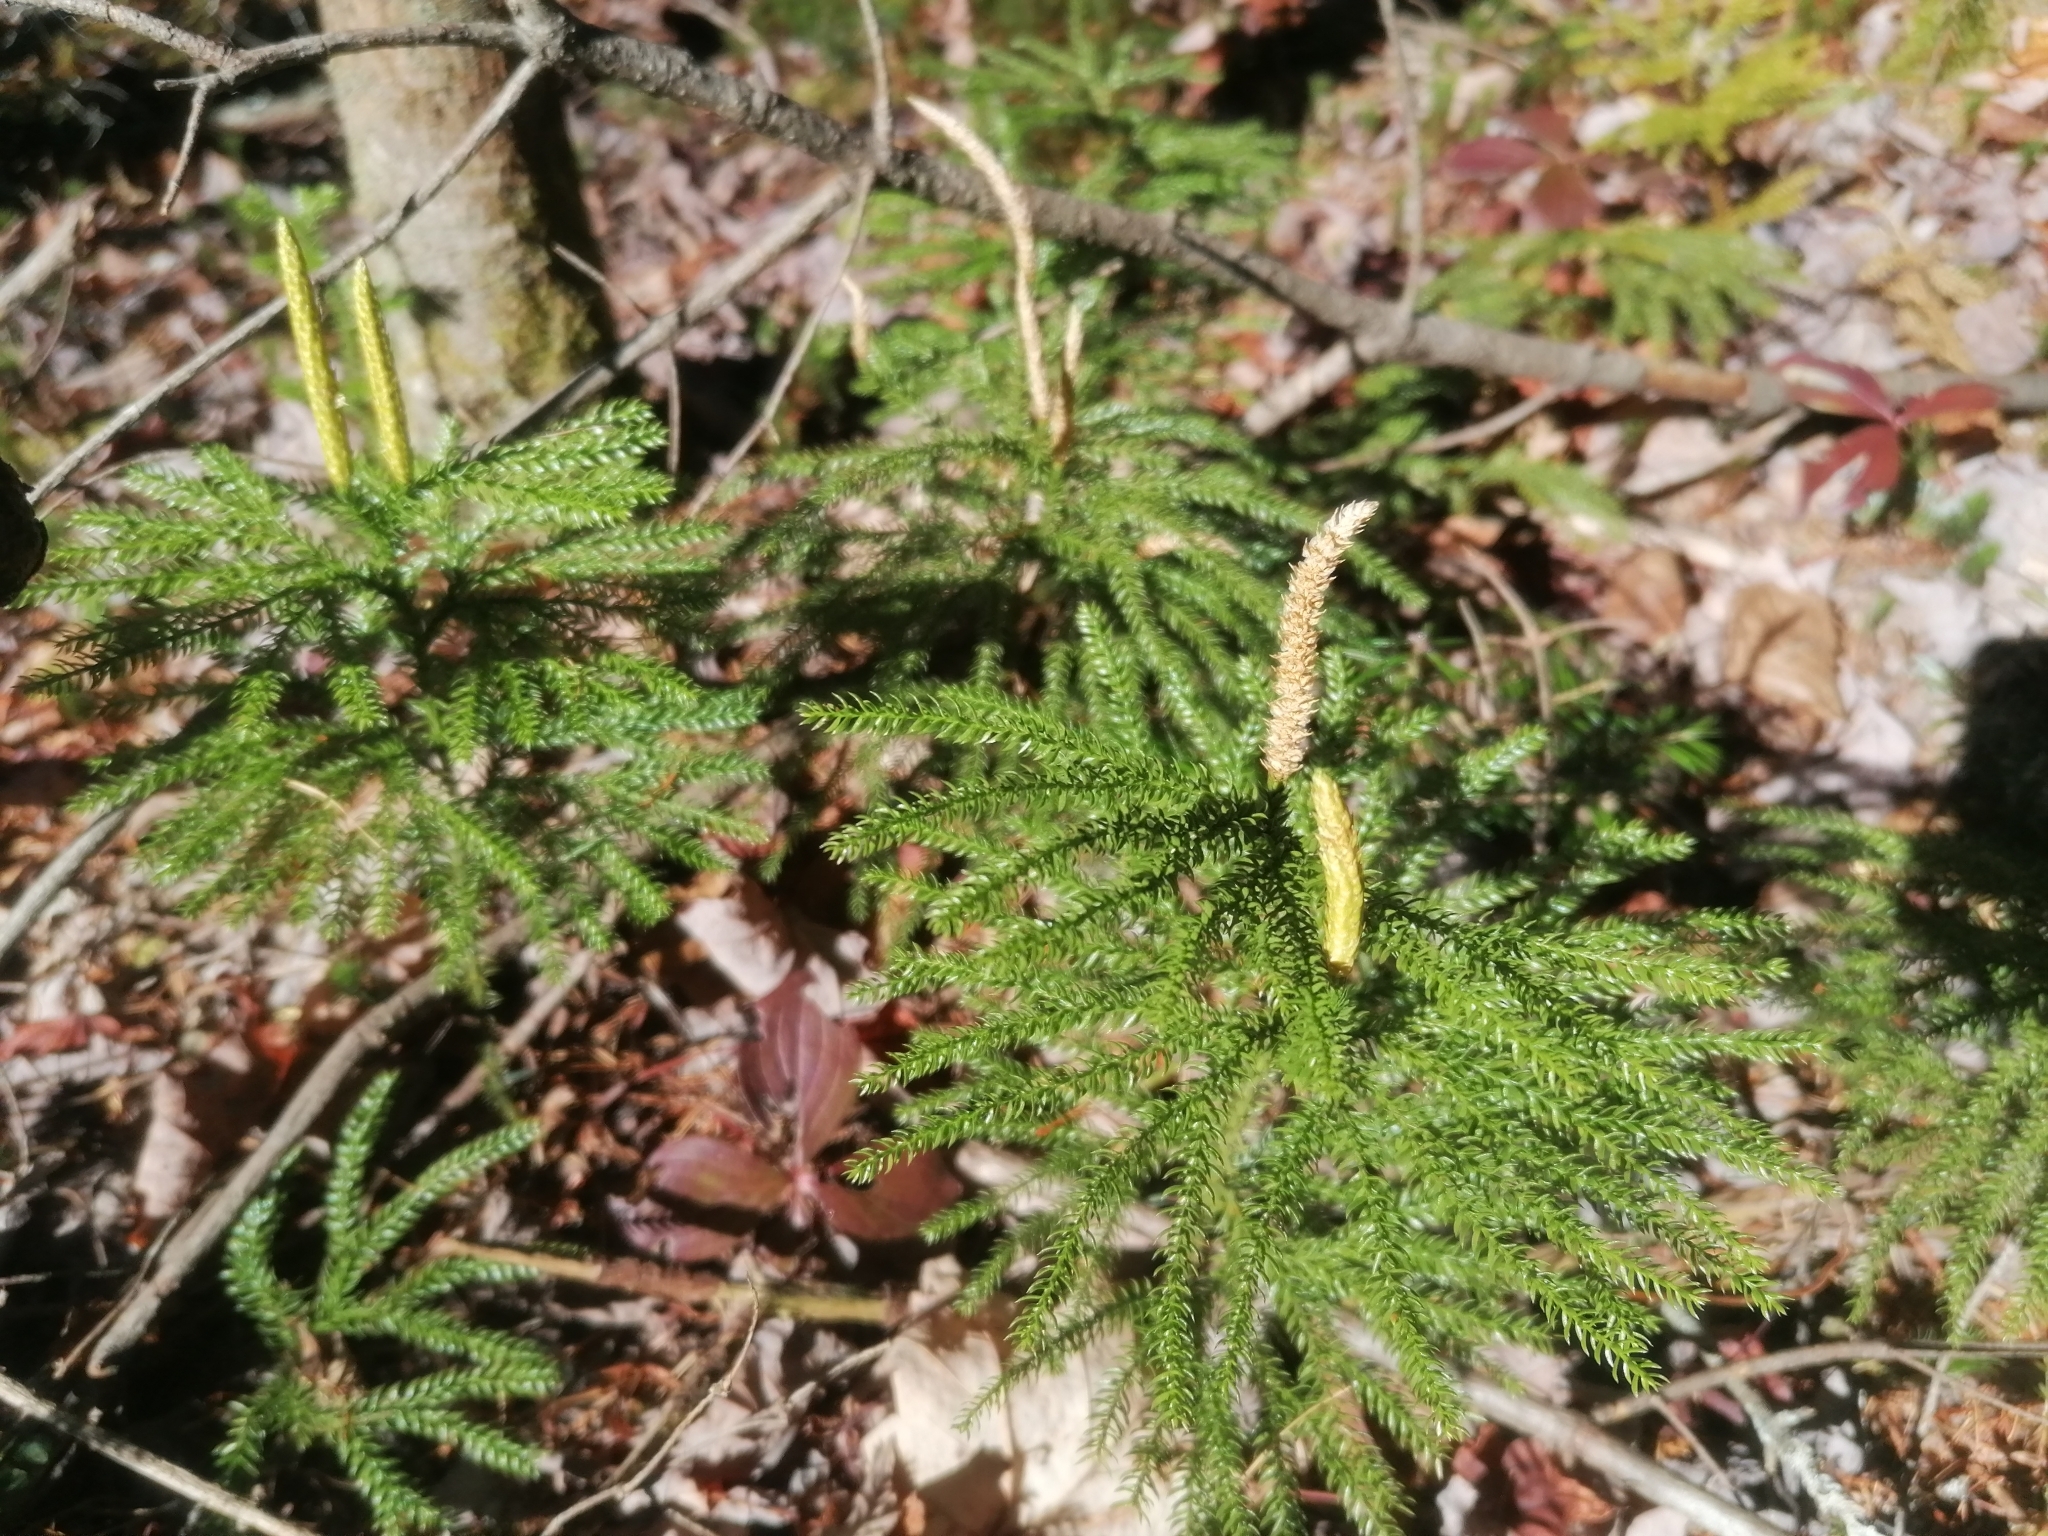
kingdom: Plantae
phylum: Tracheophyta
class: Lycopodiopsida
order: Lycopodiales
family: Lycopodiaceae
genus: Dendrolycopodium
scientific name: Dendrolycopodium dendroideum
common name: Northern tree-clubmoss
